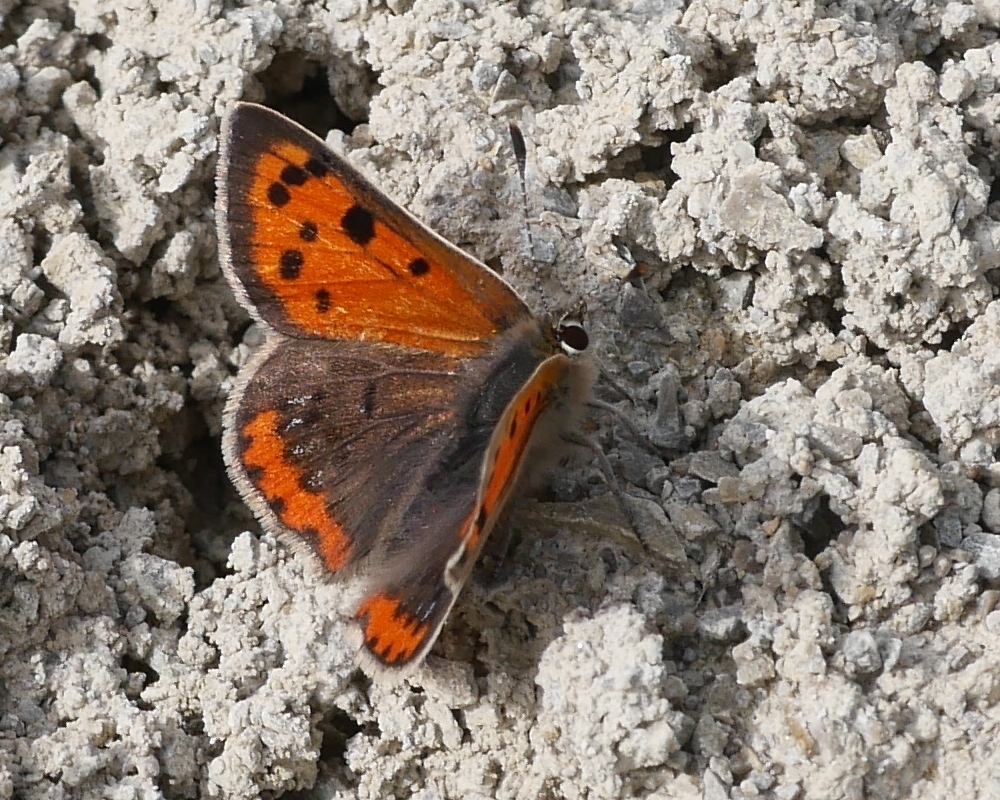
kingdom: Animalia
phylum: Arthropoda
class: Insecta
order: Lepidoptera
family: Lycaenidae
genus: Lycaena
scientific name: Lycaena phlaeas
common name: Small copper
